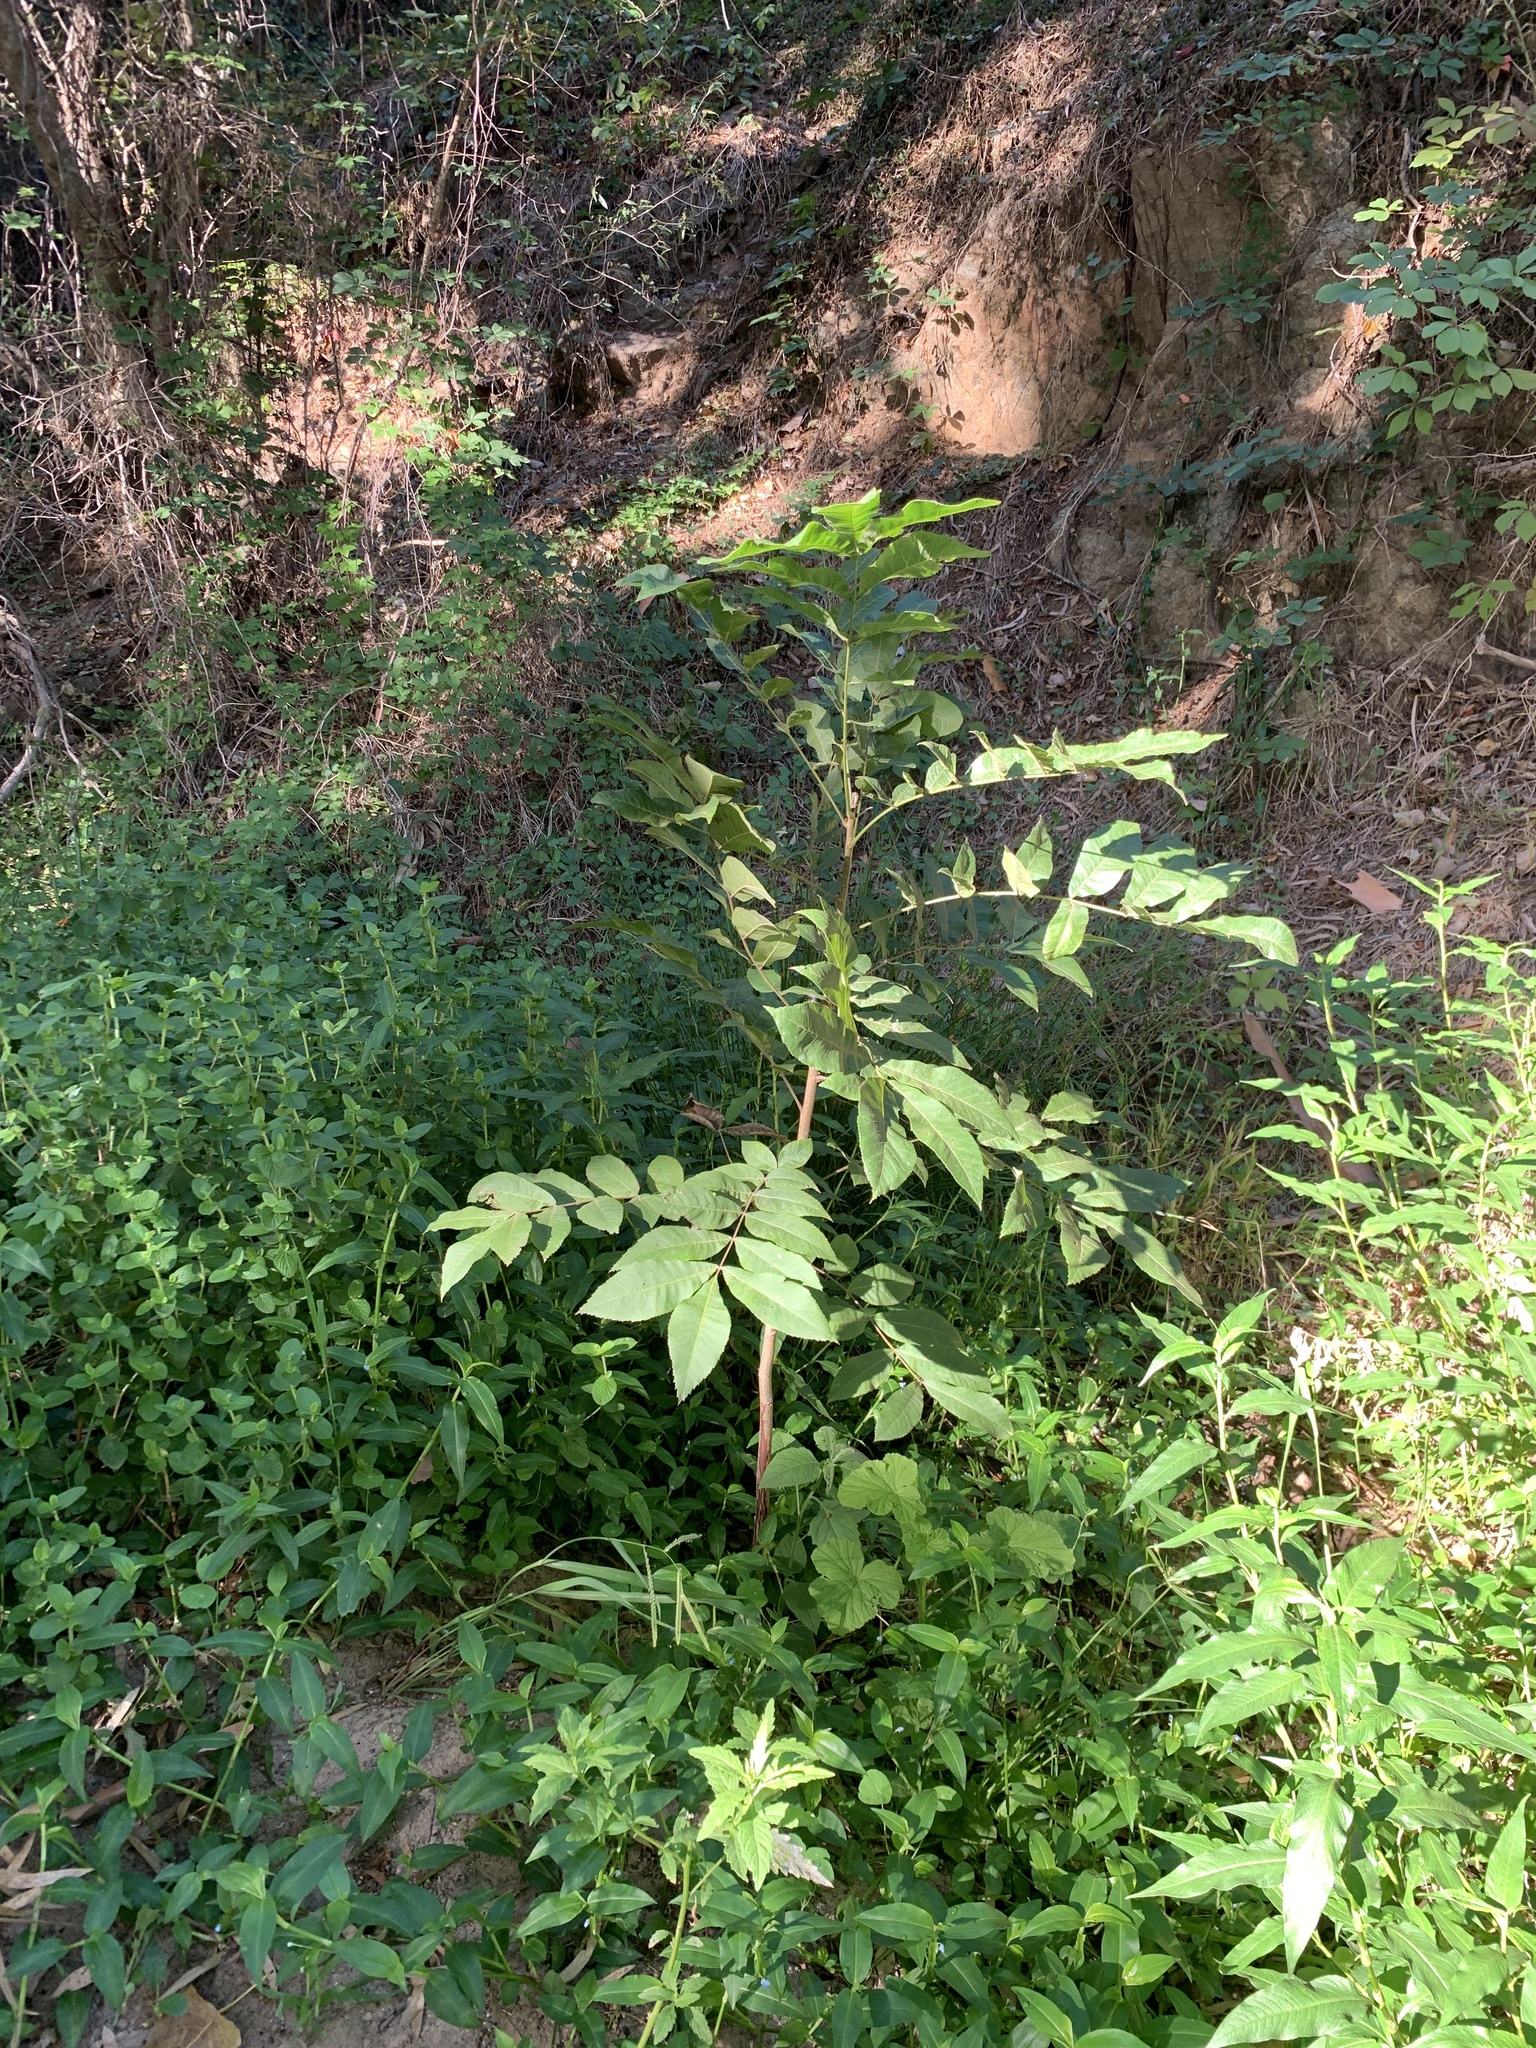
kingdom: Plantae
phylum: Tracheophyta
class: Magnoliopsida
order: Fagales
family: Juglandaceae
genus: Carya
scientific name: Carya illinoinensis
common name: Pecan
